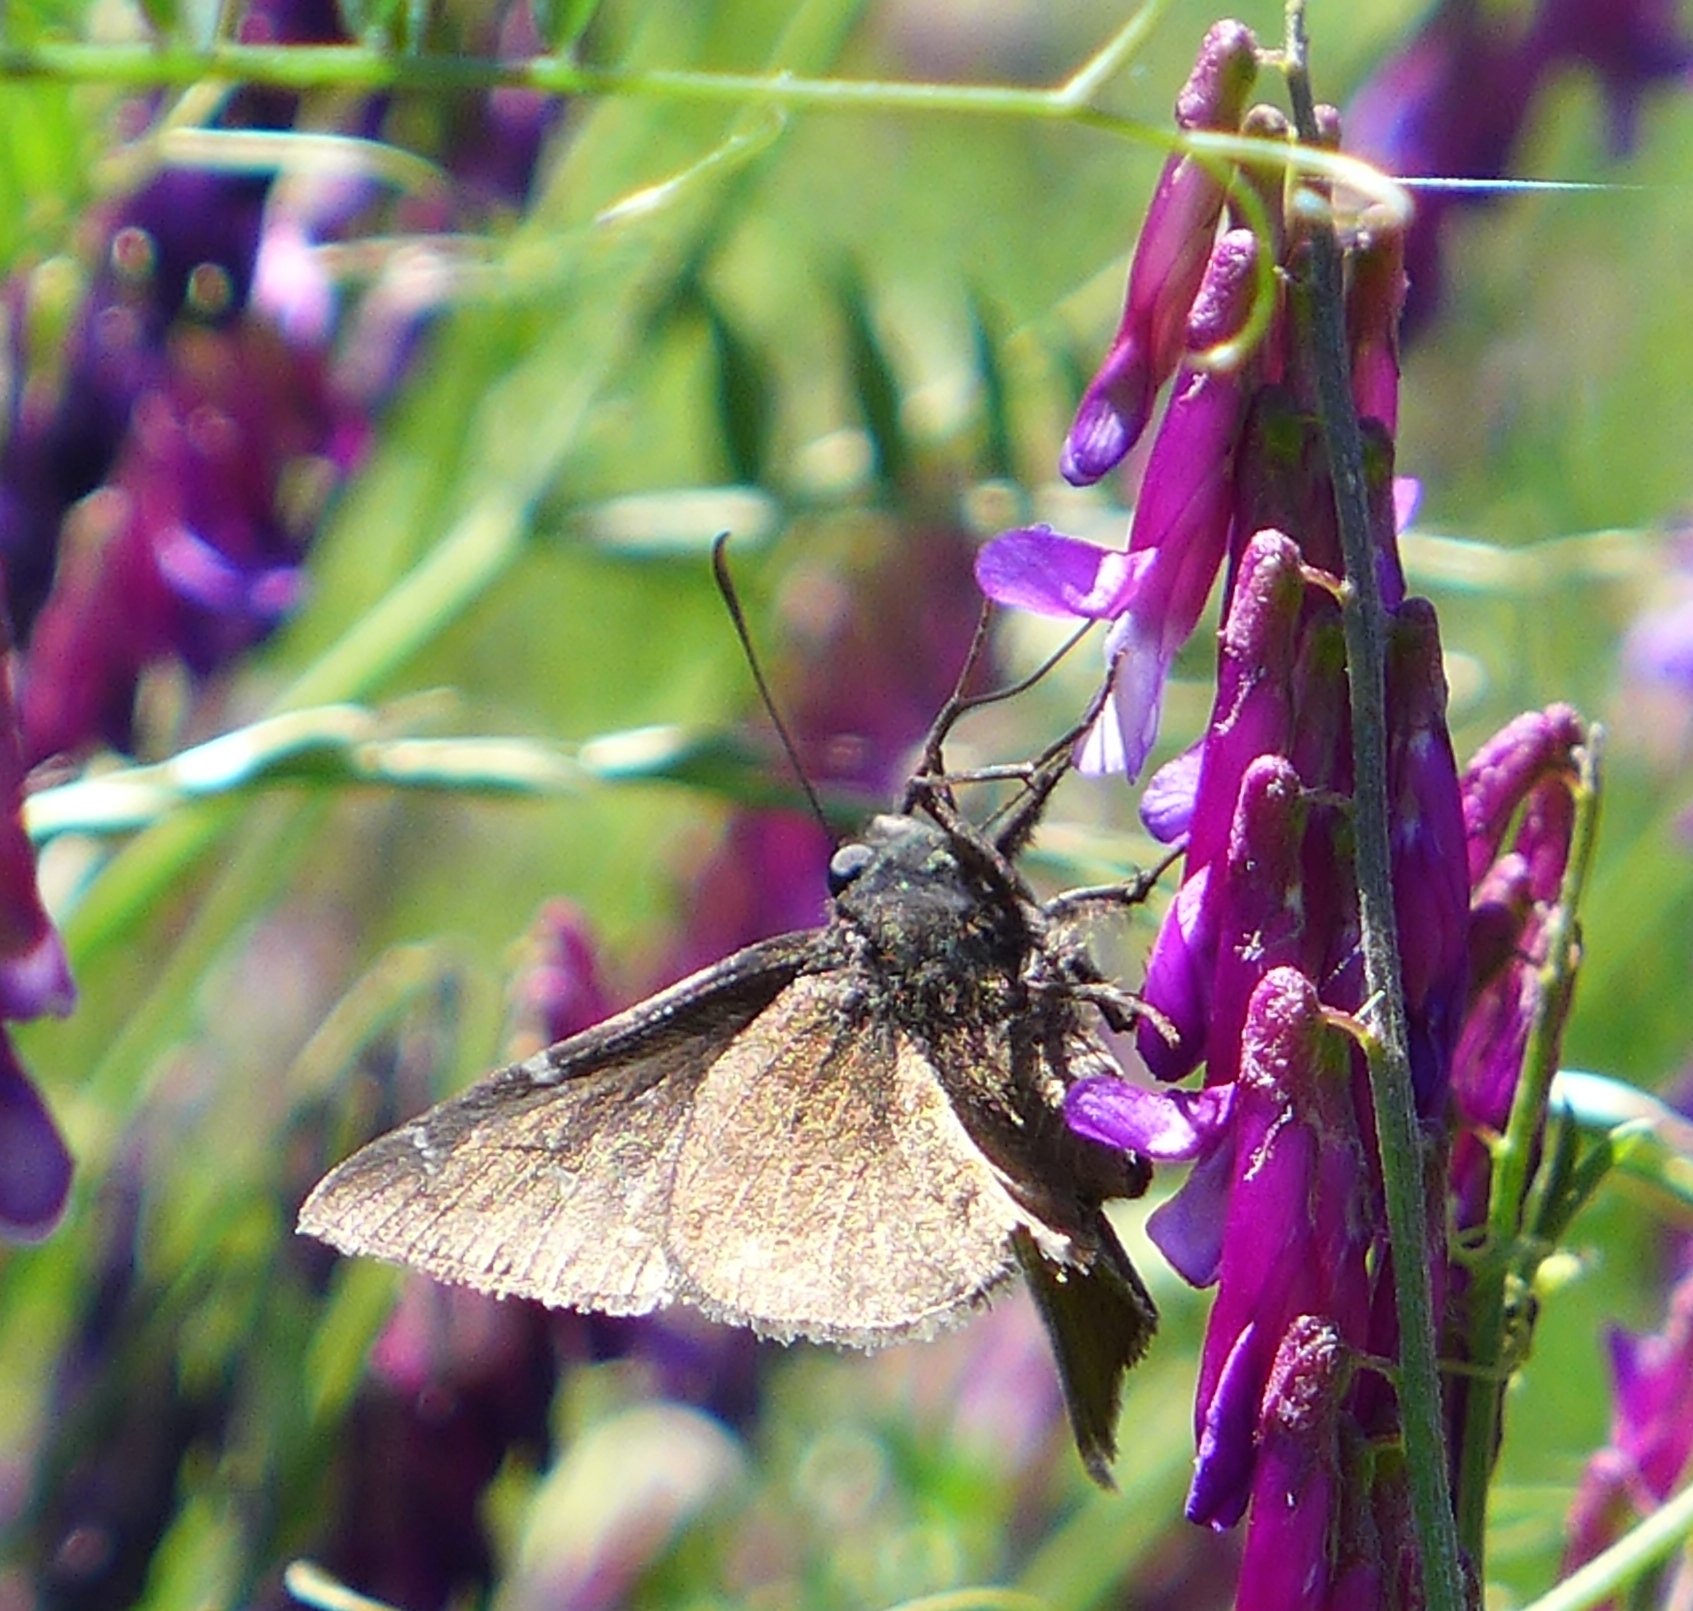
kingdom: Animalia
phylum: Arthropoda
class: Insecta
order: Lepidoptera
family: Hesperiidae
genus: Thorybes
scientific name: Thorybes pylades
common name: Northern cloudywing
